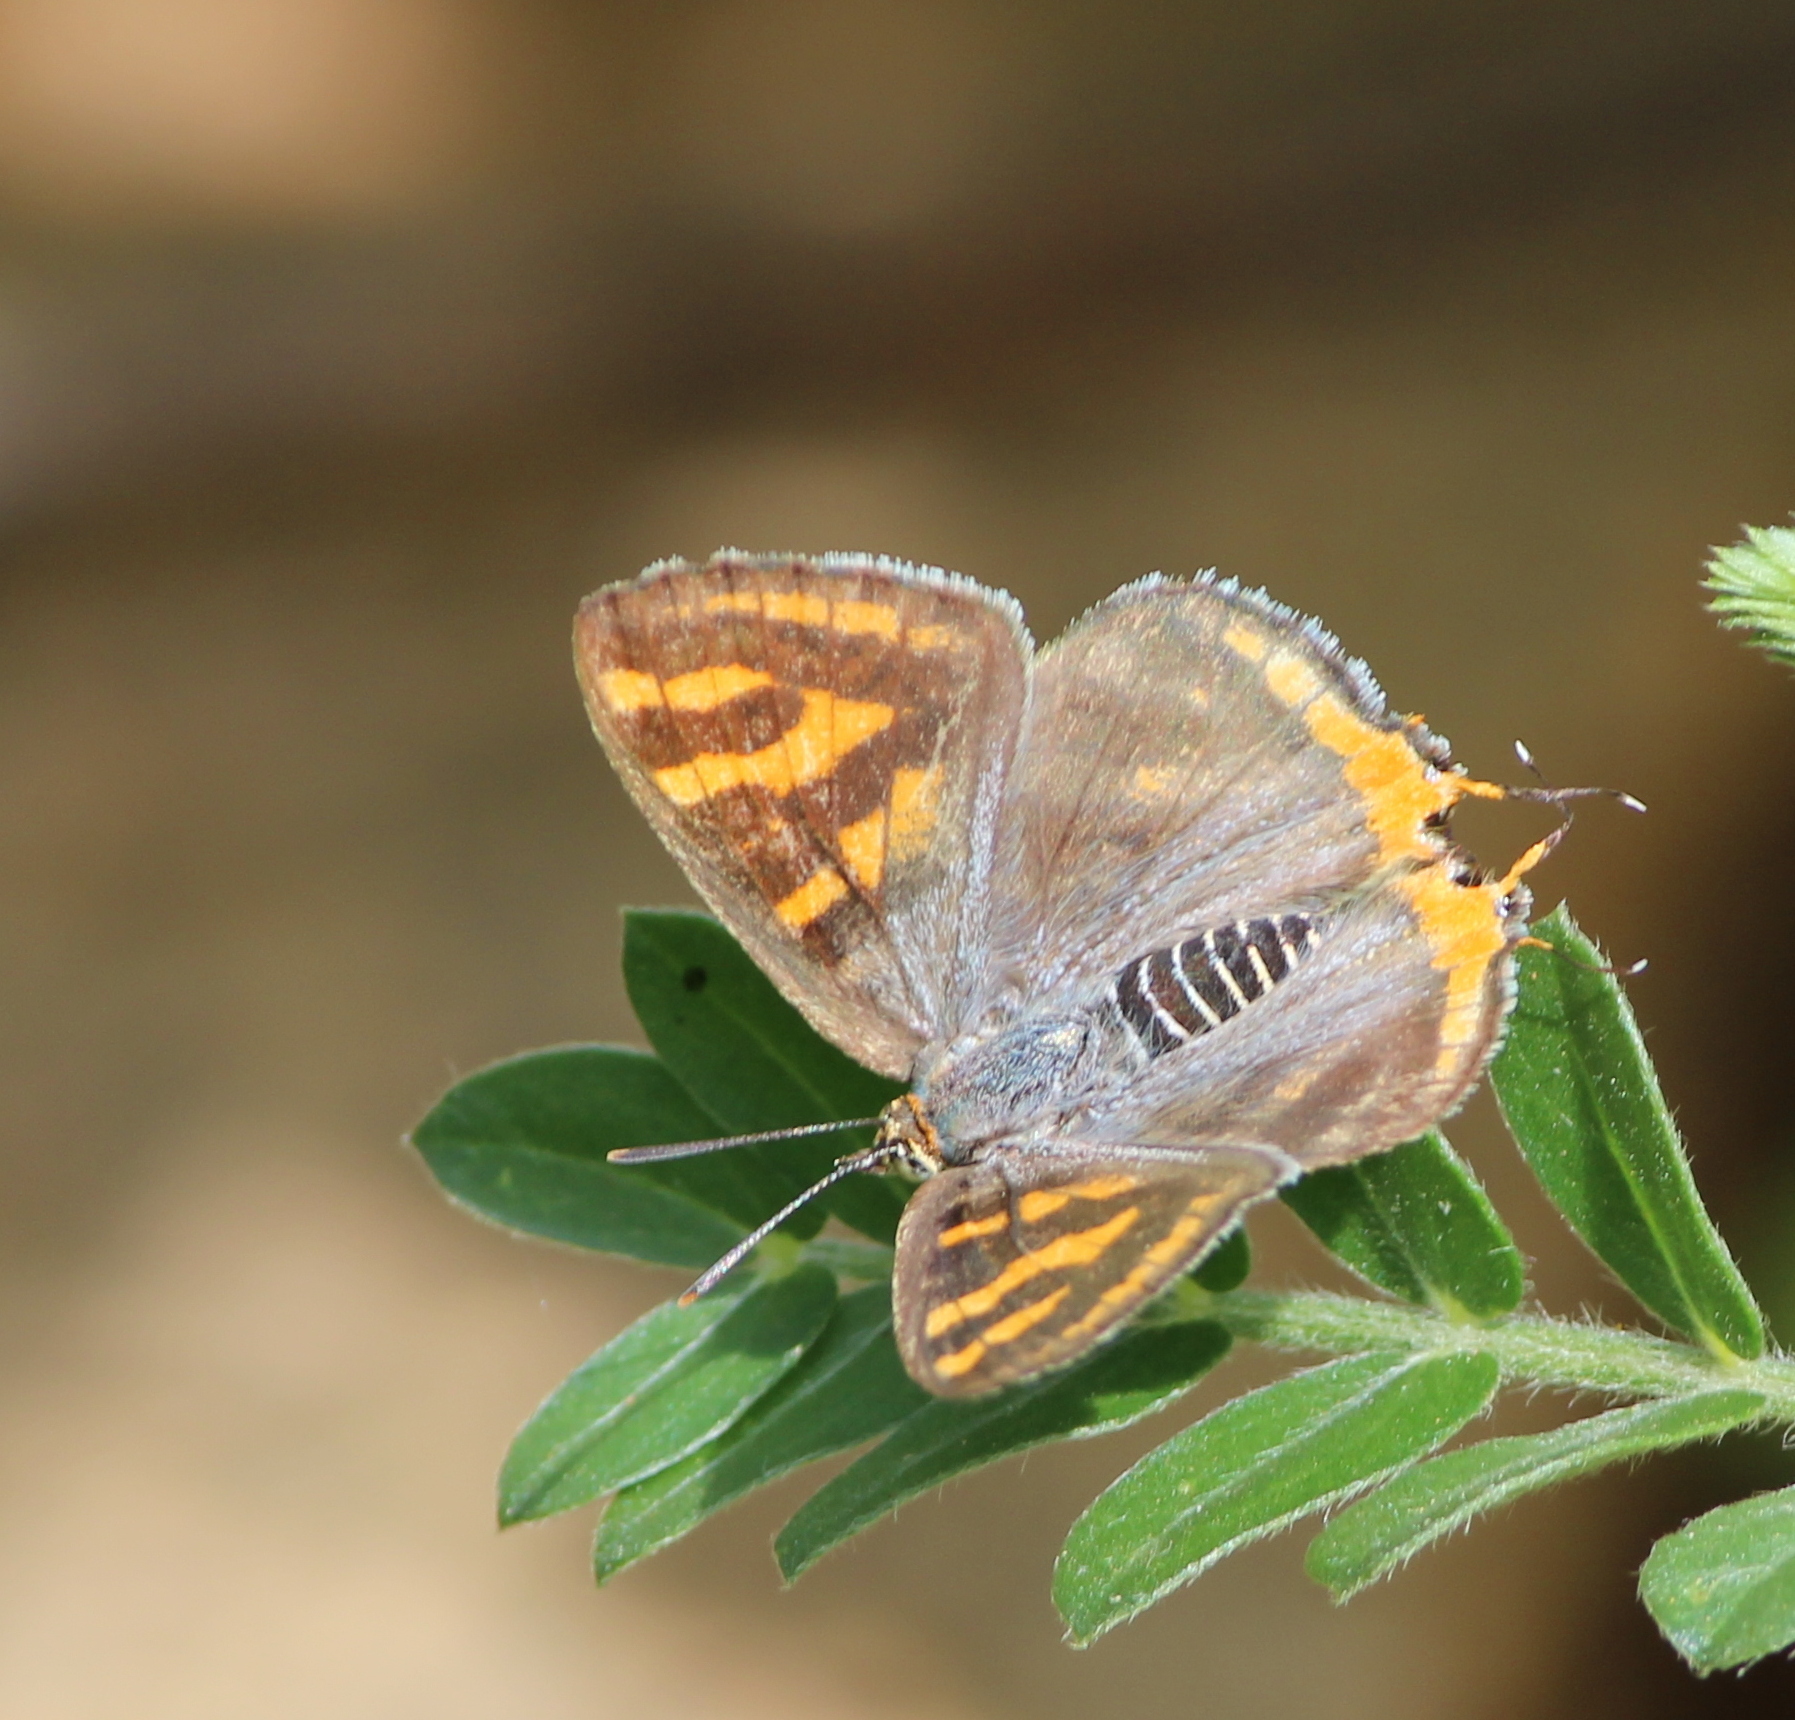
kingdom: Animalia
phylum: Arthropoda
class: Insecta
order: Lepidoptera
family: Lycaenidae
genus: Cigaritis
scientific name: Cigaritis vulcanus
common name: Common silverline
